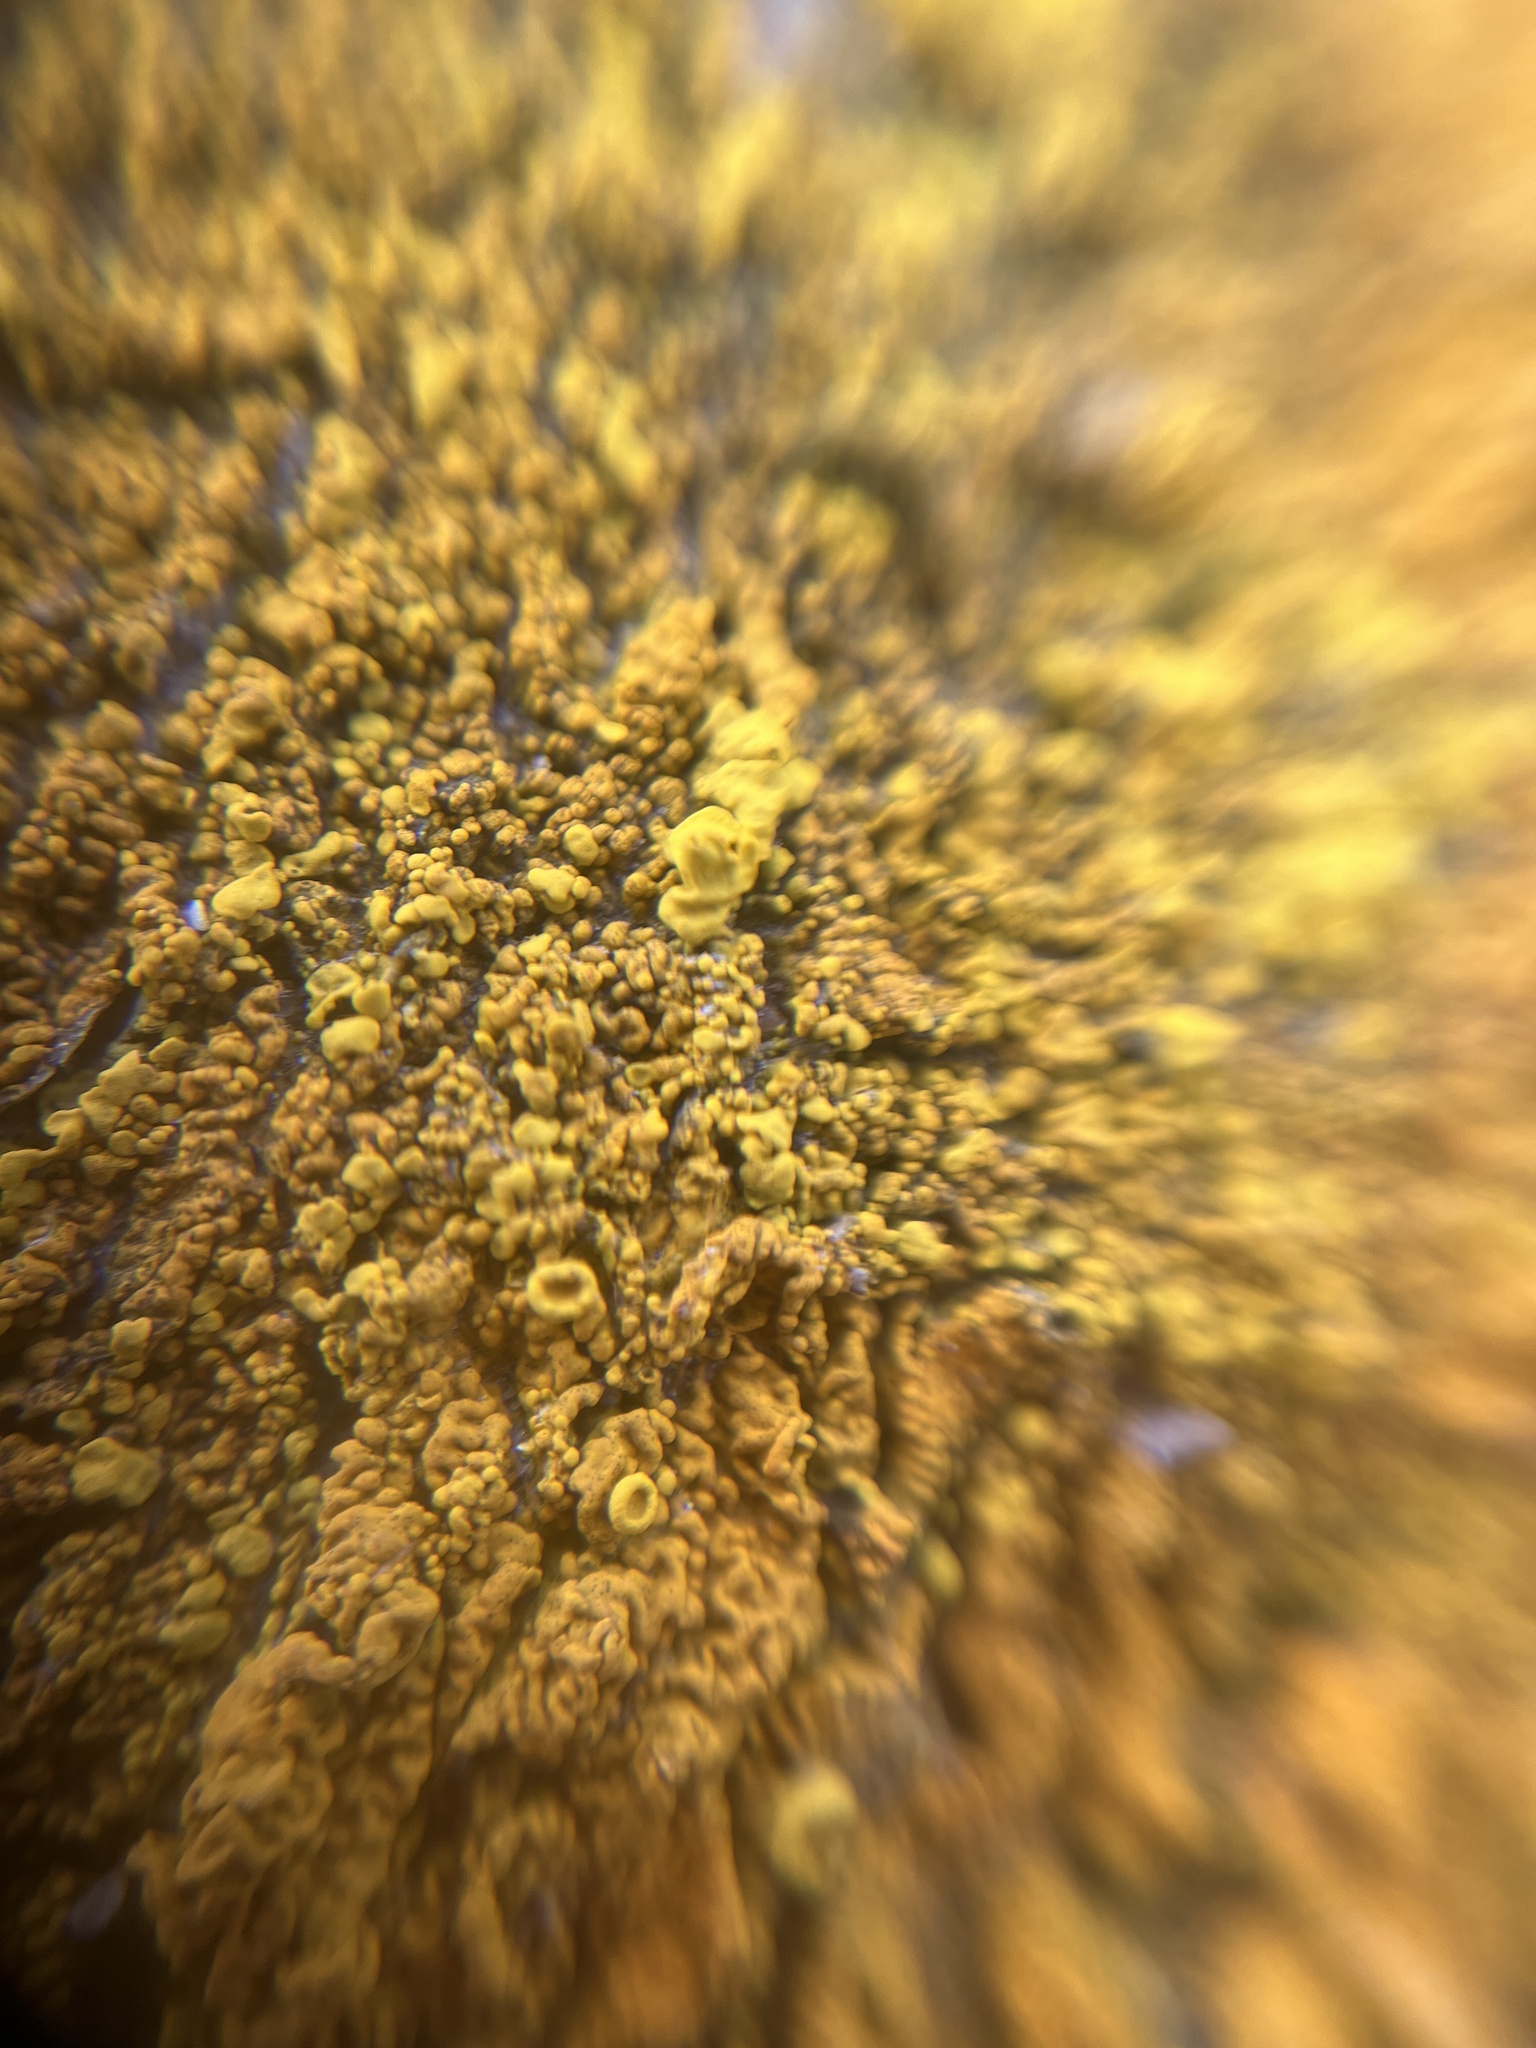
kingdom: Fungi
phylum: Ascomycota
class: Lecanoromycetes
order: Teloschistales
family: Teloschistaceae
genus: Xanthoria
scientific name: Xanthoria calcicola
